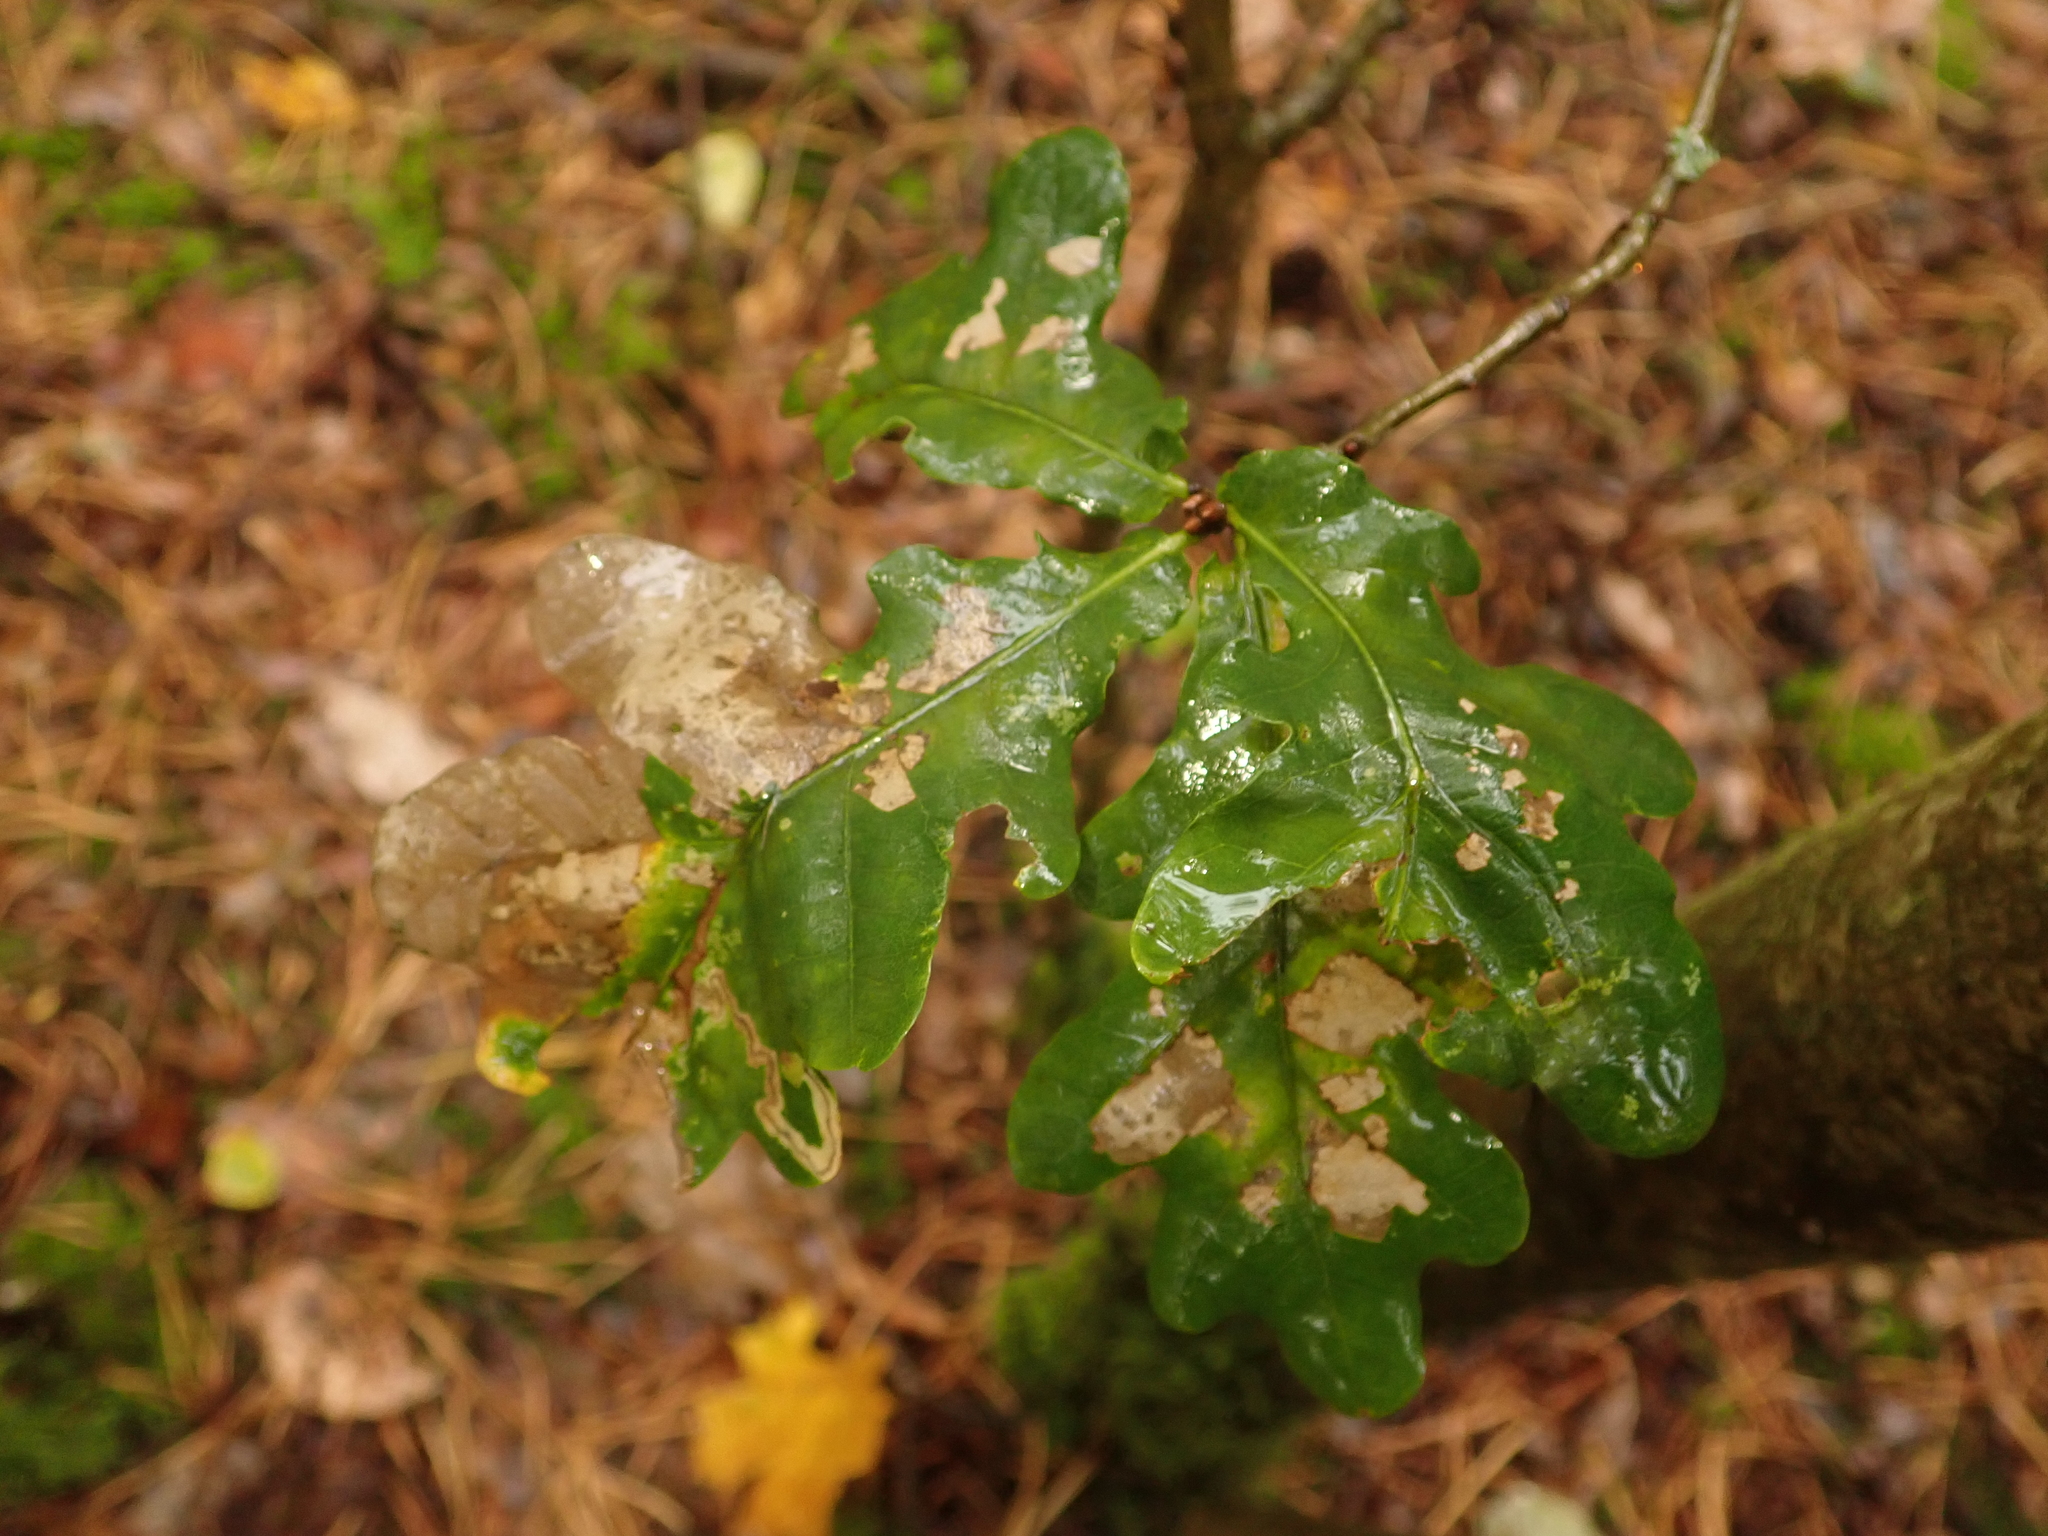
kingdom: Plantae
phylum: Tracheophyta
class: Magnoliopsida
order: Fagales
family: Fagaceae
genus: Quercus
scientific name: Quercus robur
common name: Pedunculate oak
